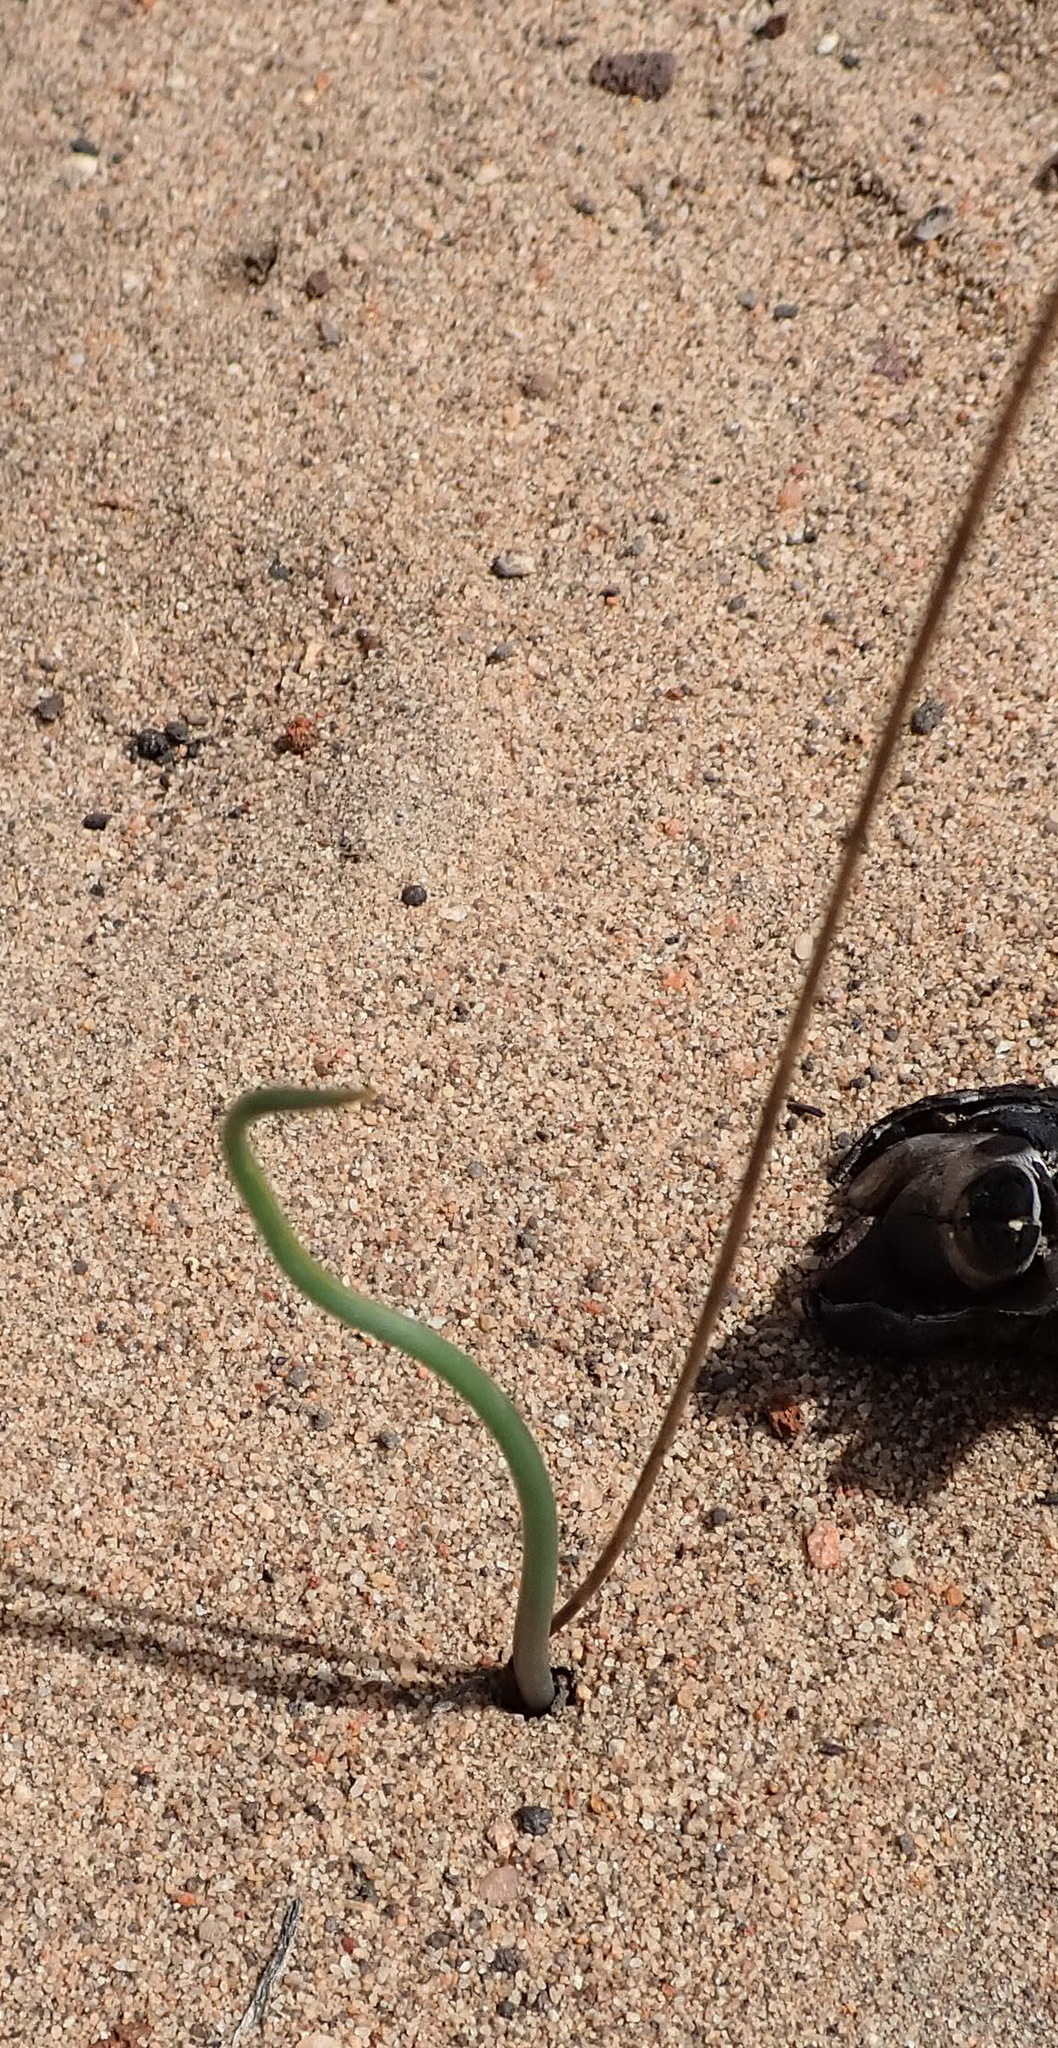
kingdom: Plantae
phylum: Tracheophyta
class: Liliopsida
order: Asparagales
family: Asparagaceae
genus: Drimia
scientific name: Drimia anomala
